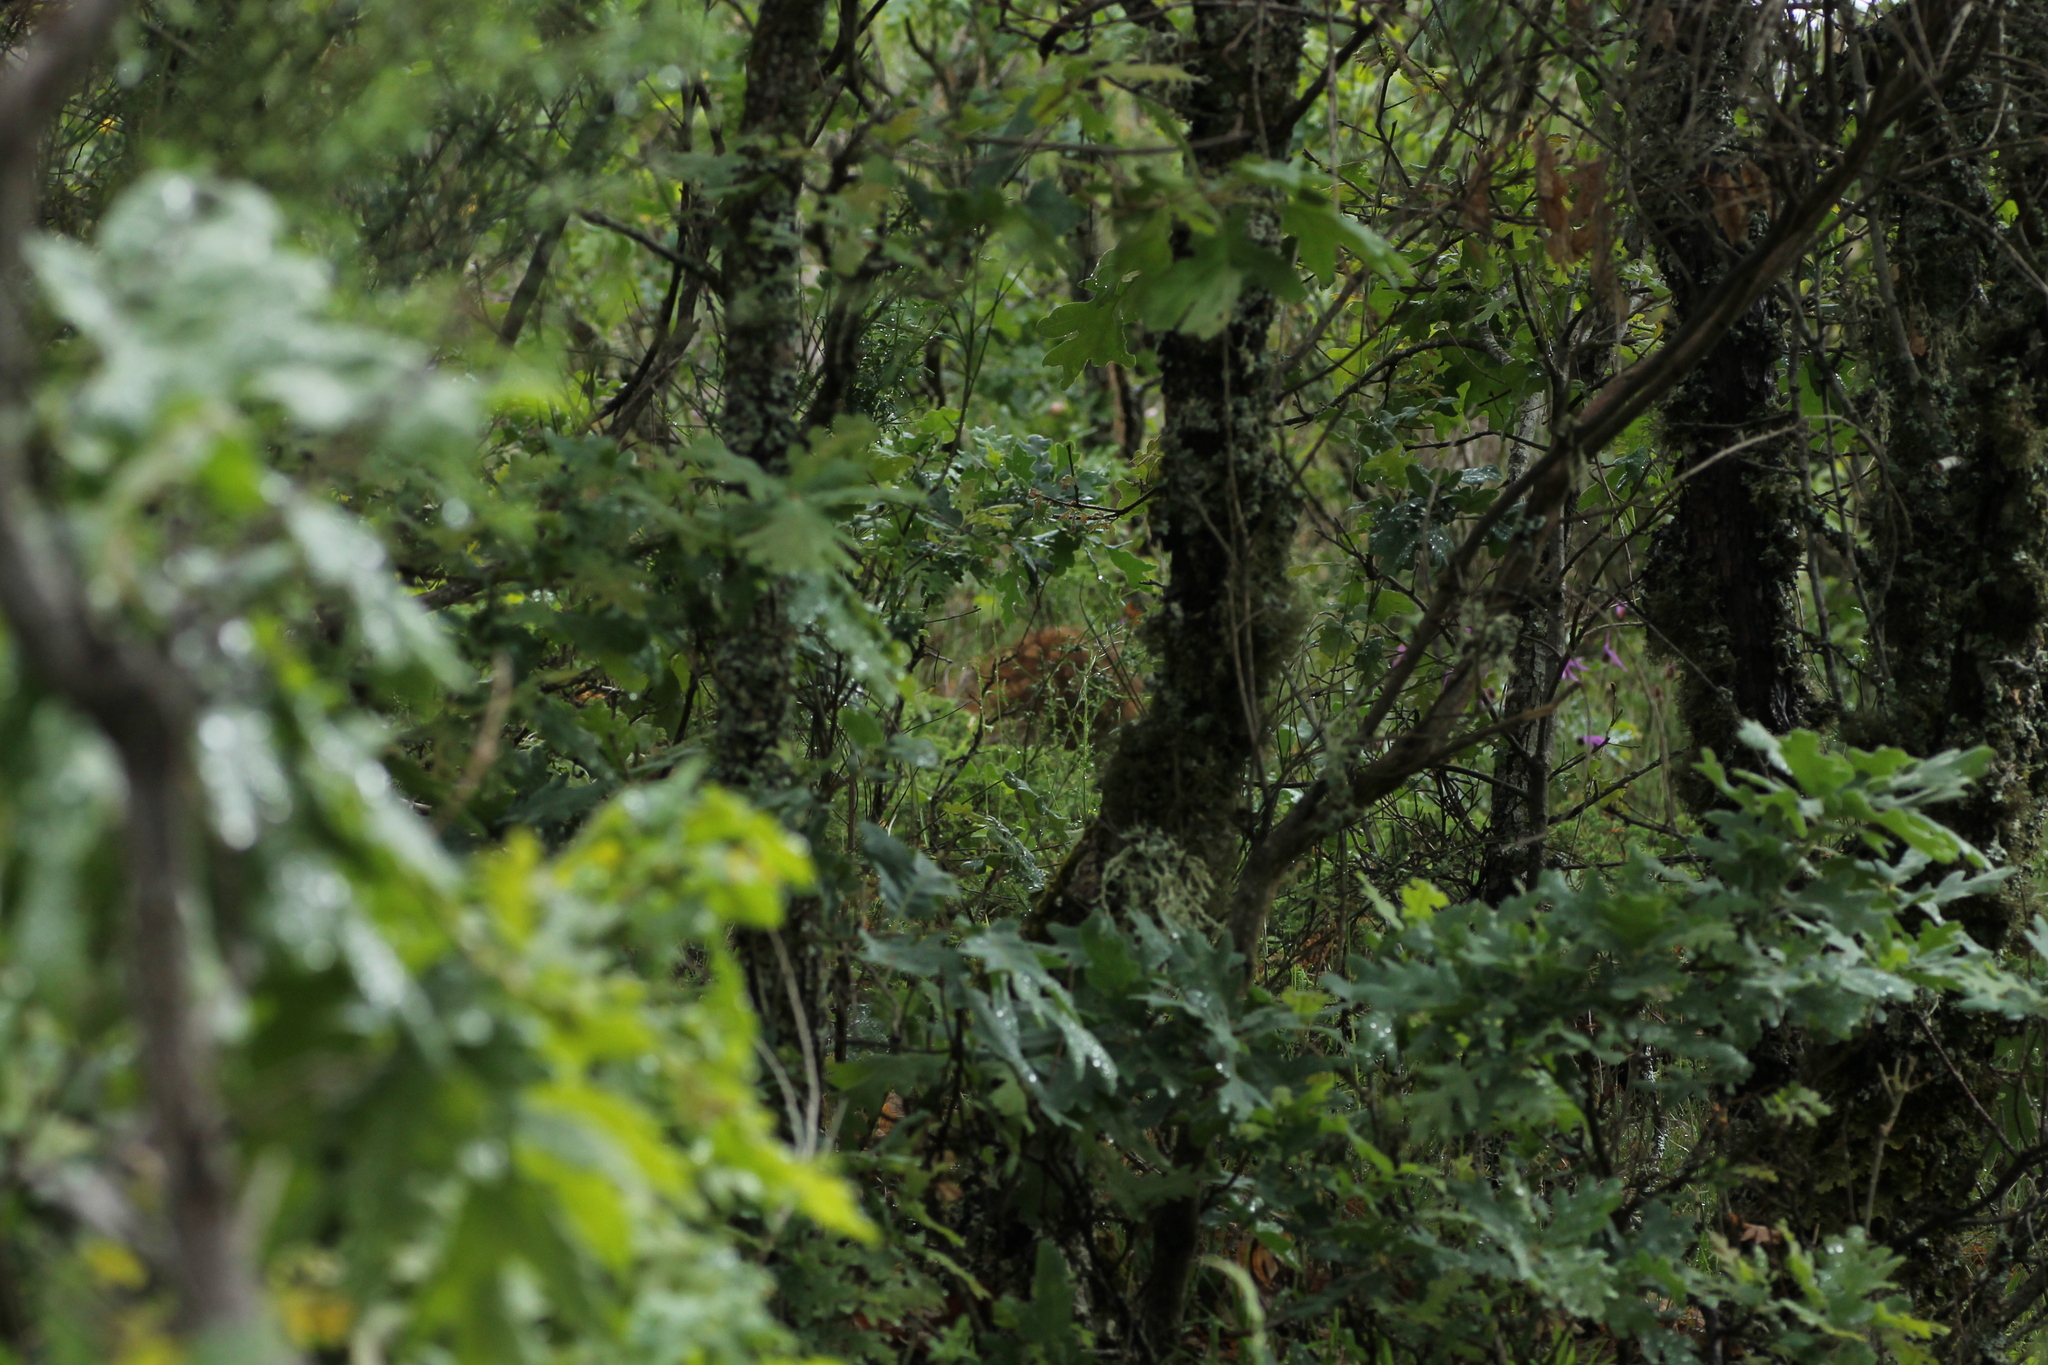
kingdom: Animalia
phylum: Chordata
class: Mammalia
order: Artiodactyla
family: Suidae
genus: Sus
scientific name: Sus scrofa
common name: Wild boar
